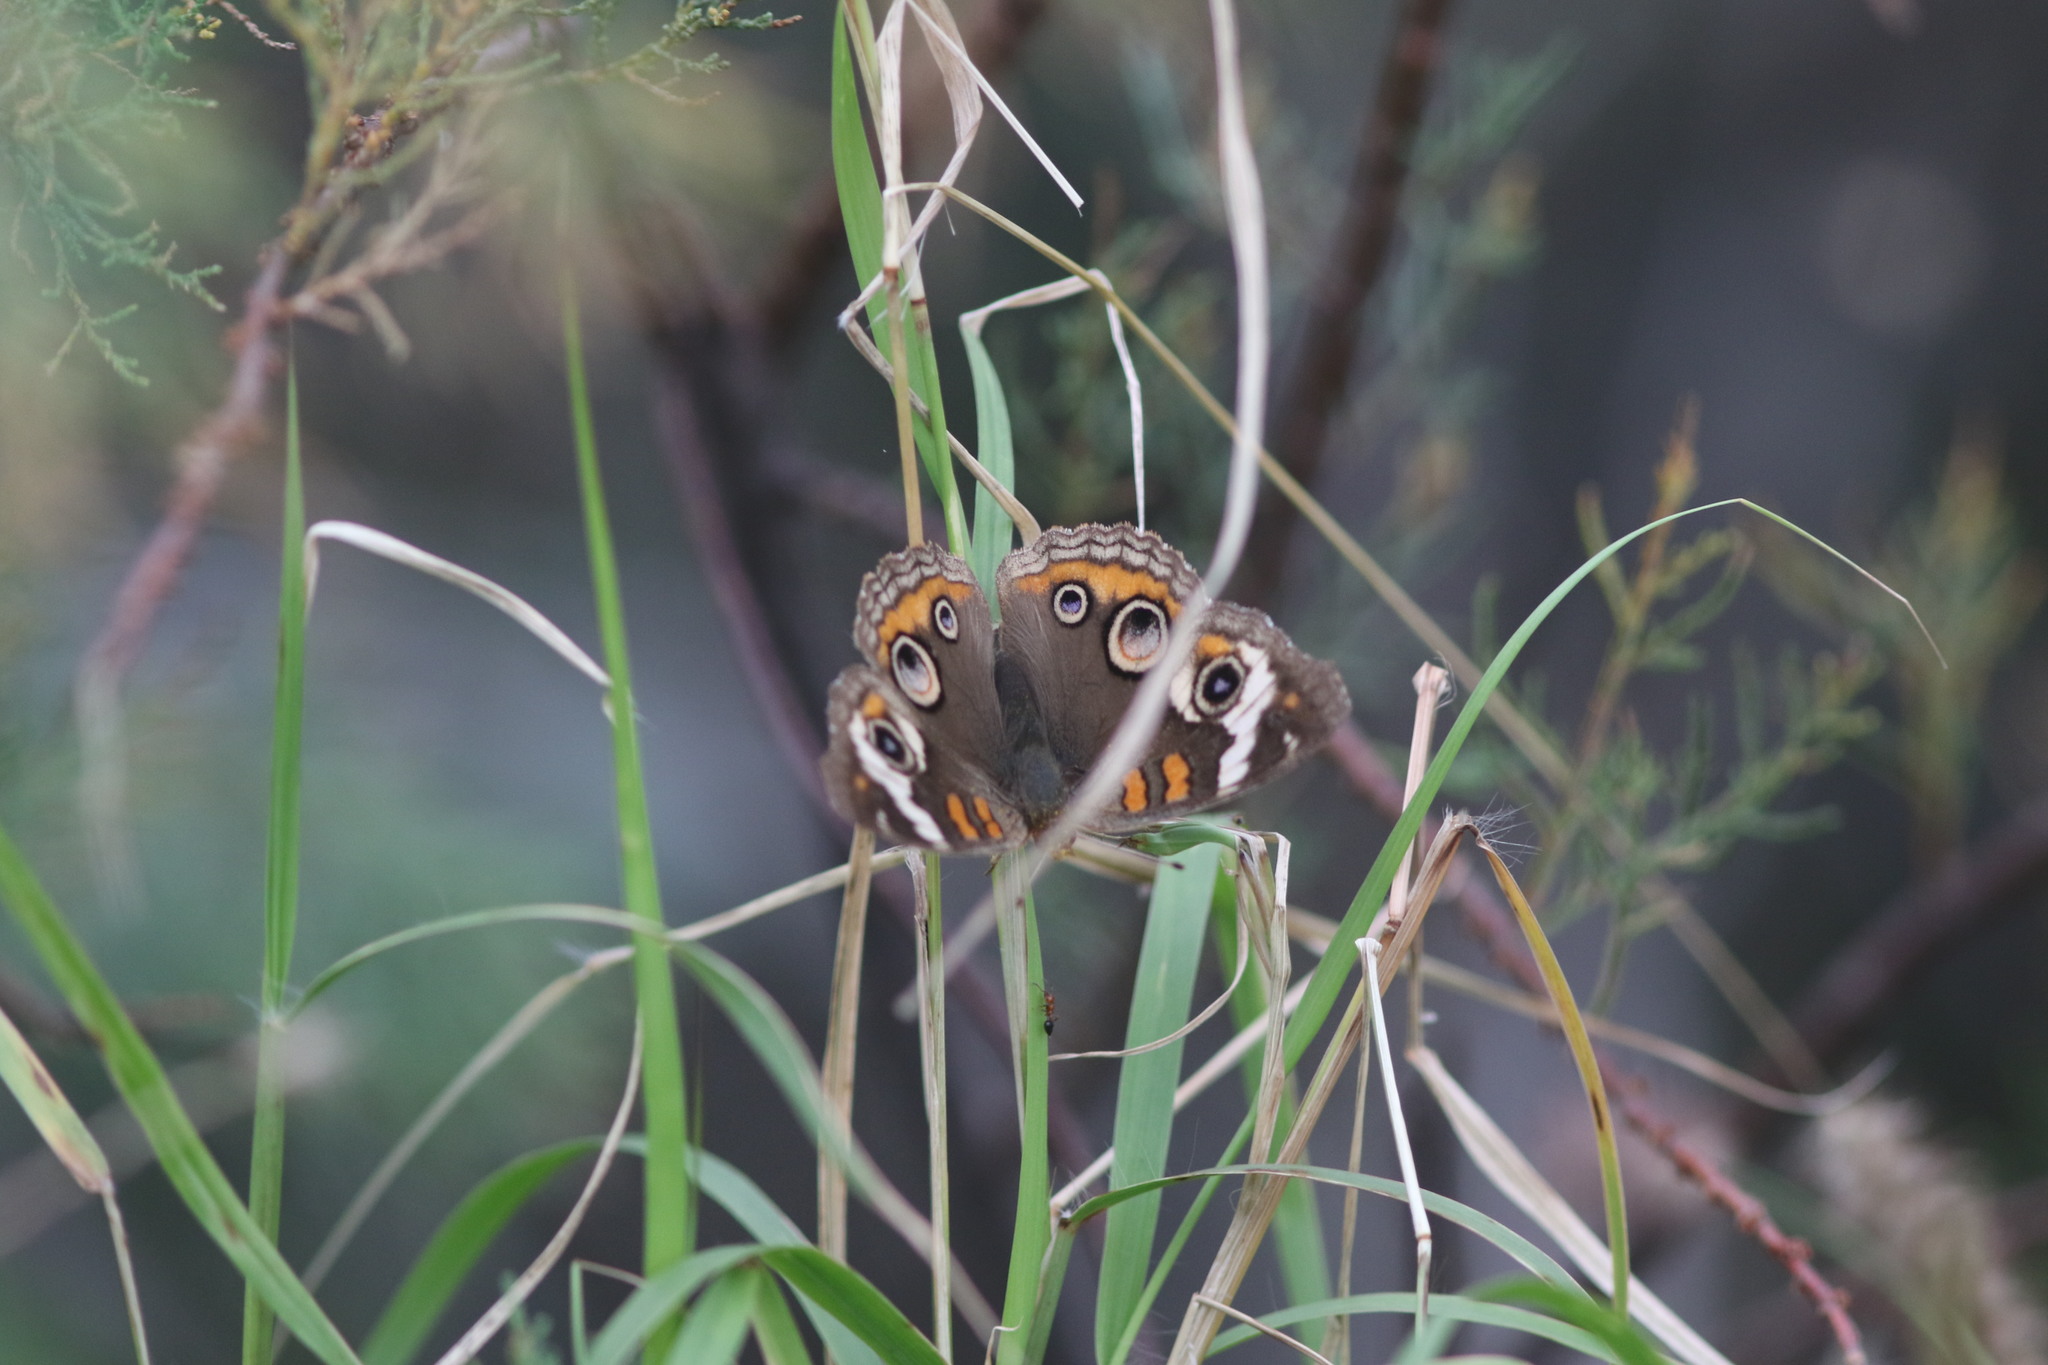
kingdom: Animalia
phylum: Arthropoda
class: Insecta
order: Lepidoptera
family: Nymphalidae
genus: Junonia
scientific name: Junonia coenia
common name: Common buckeye
